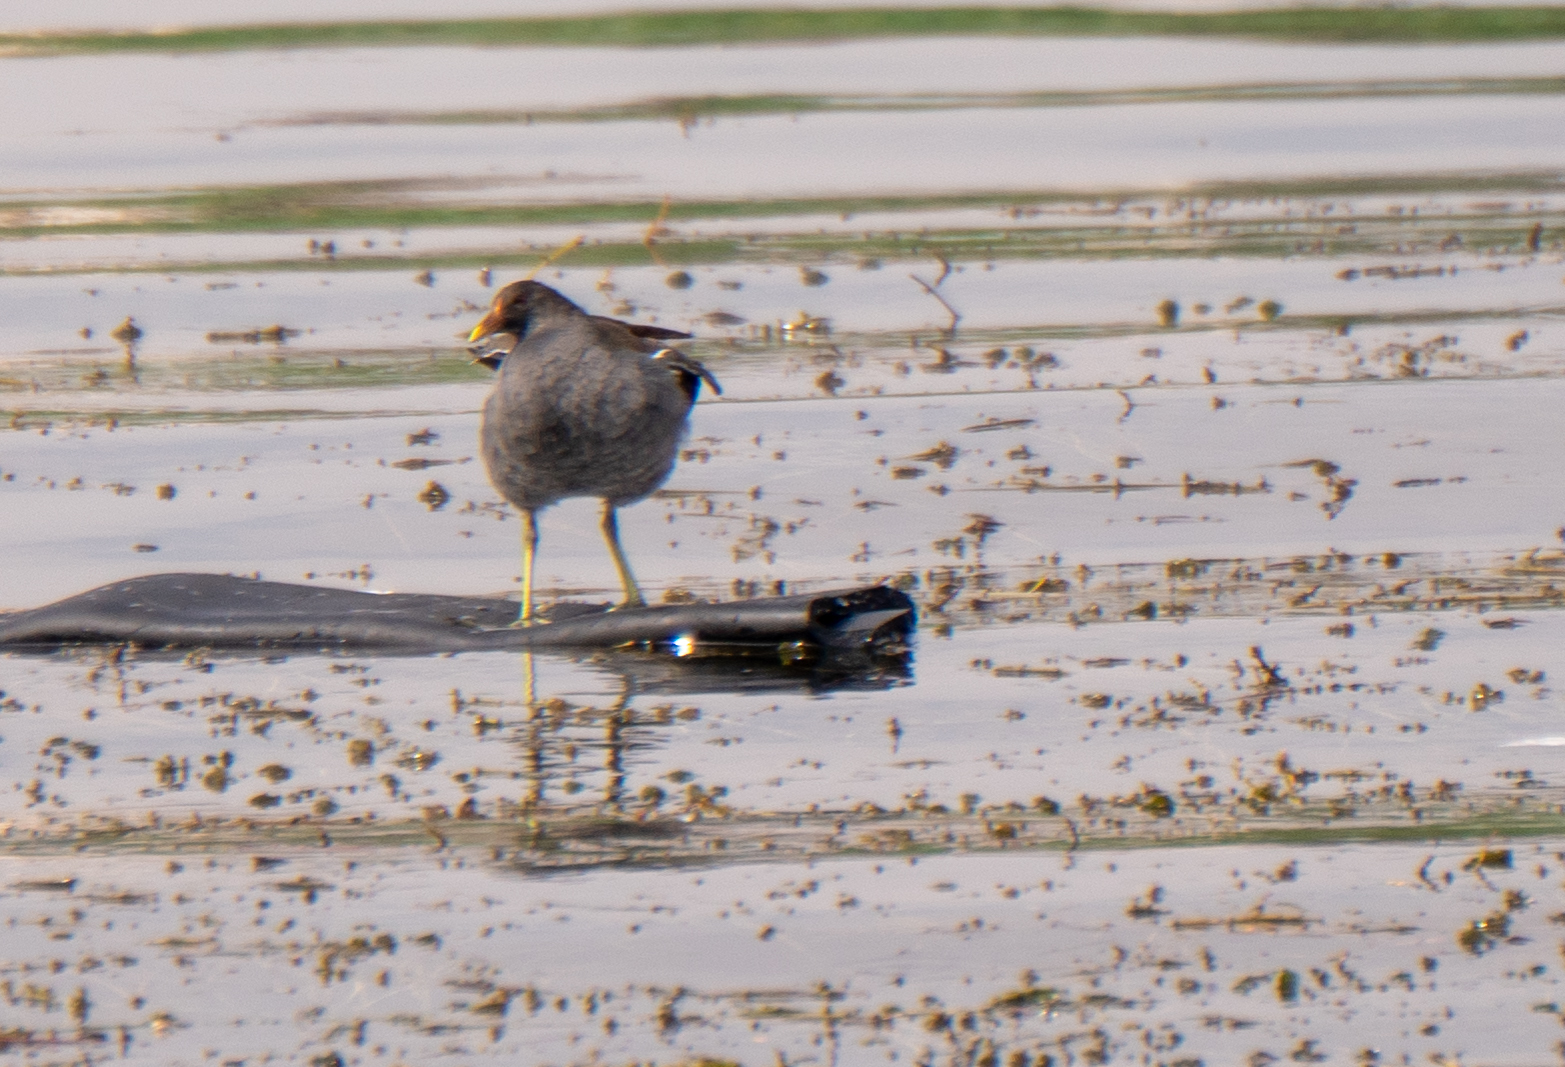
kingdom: Animalia
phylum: Chordata
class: Aves
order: Gruiformes
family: Rallidae
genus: Gallinula
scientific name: Gallinula chloropus
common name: Common moorhen
